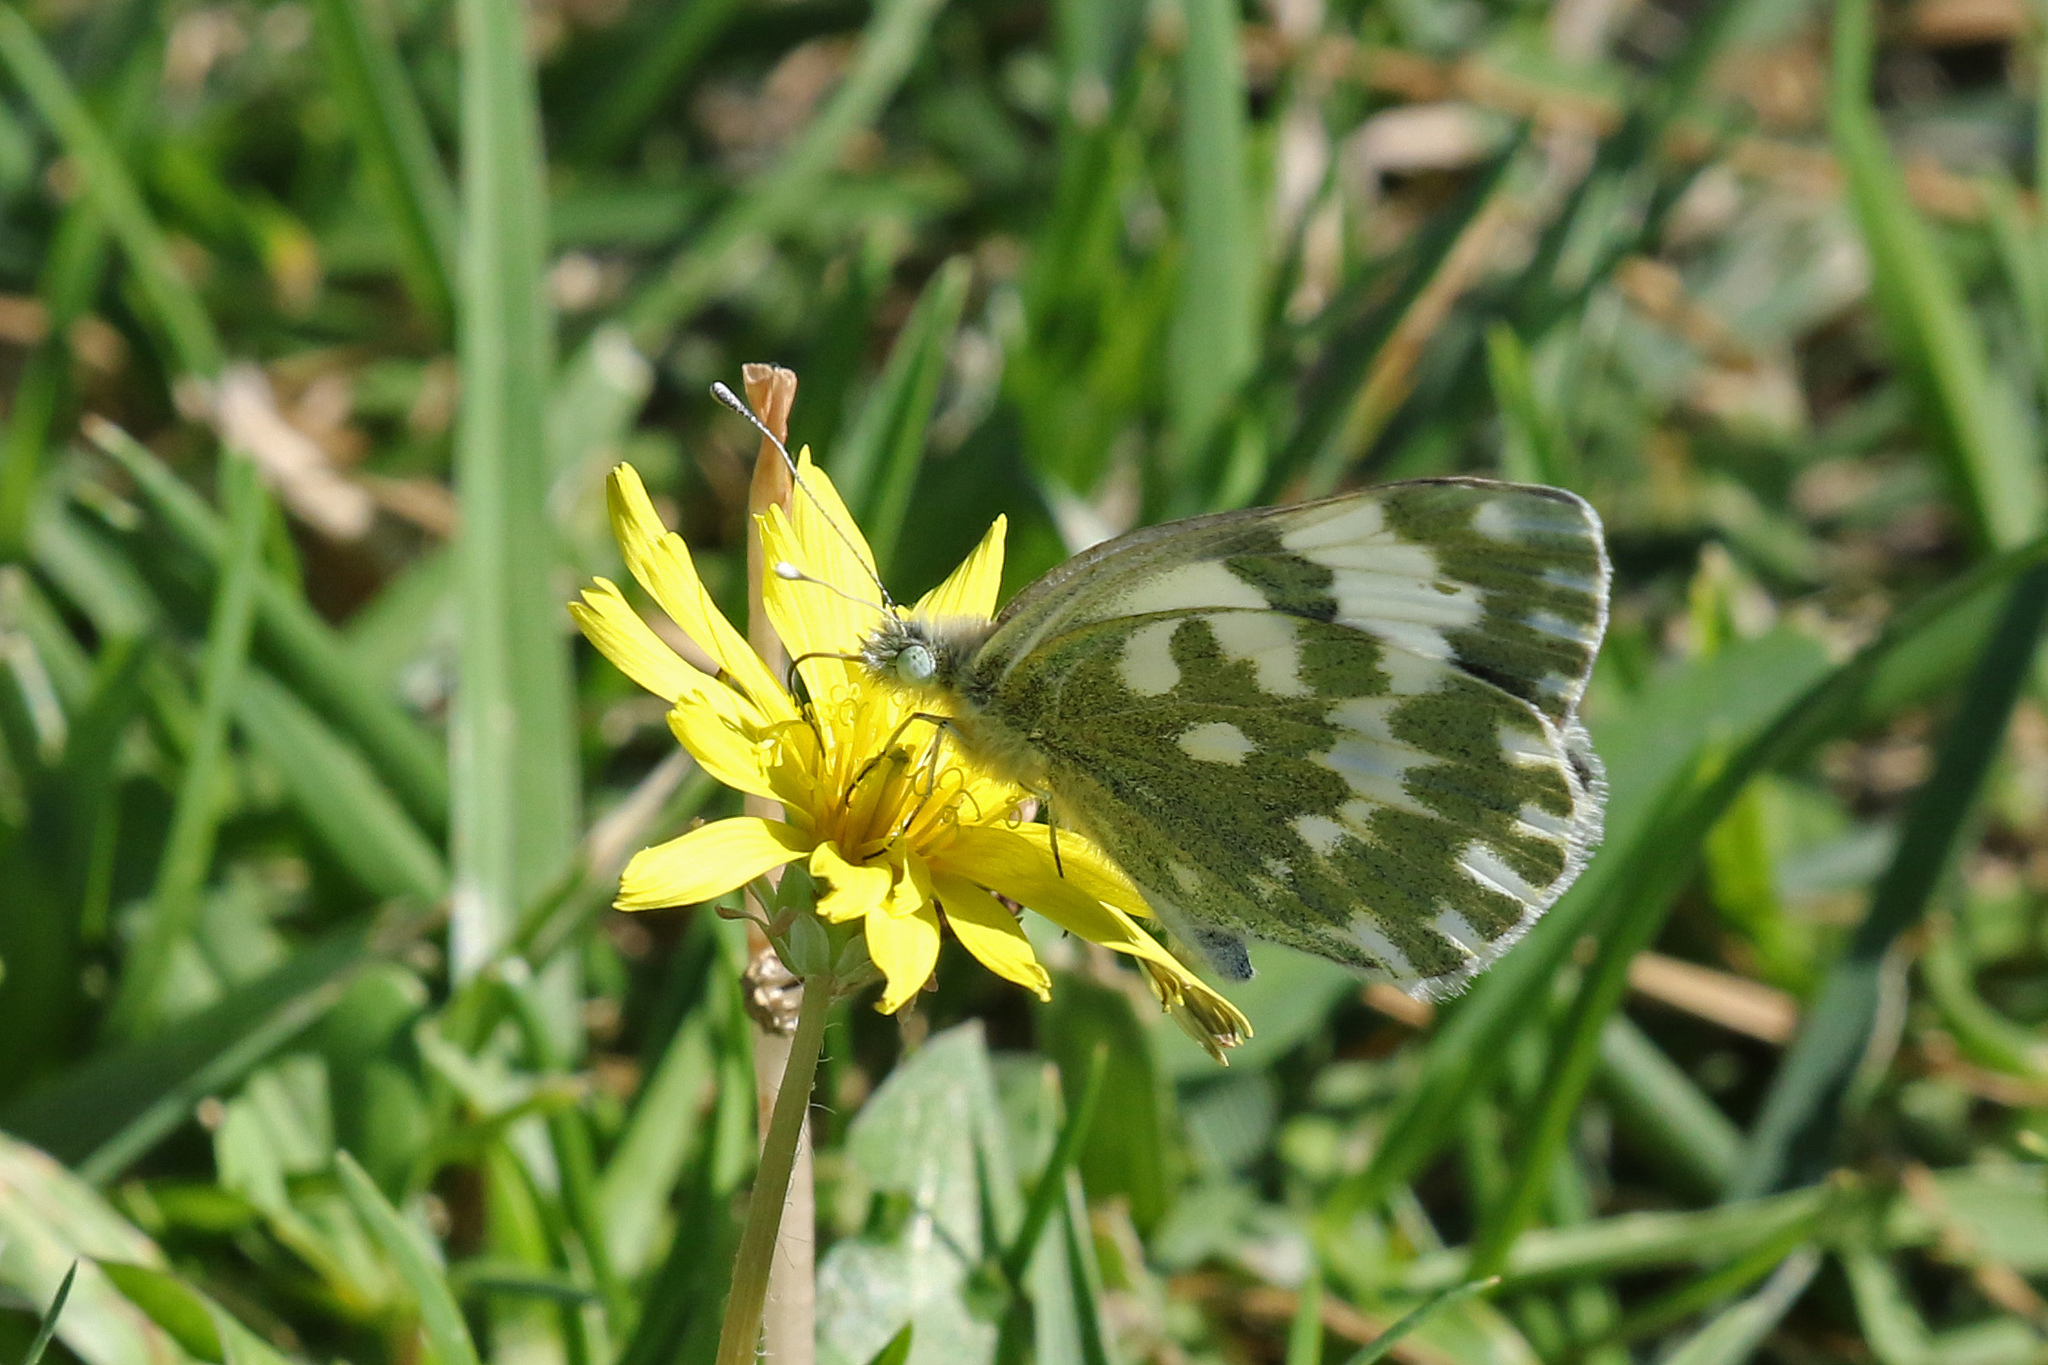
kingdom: Animalia
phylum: Arthropoda
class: Insecta
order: Lepidoptera
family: Pieridae
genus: Pontia
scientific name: Pontia edusa
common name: Eastern bath white
